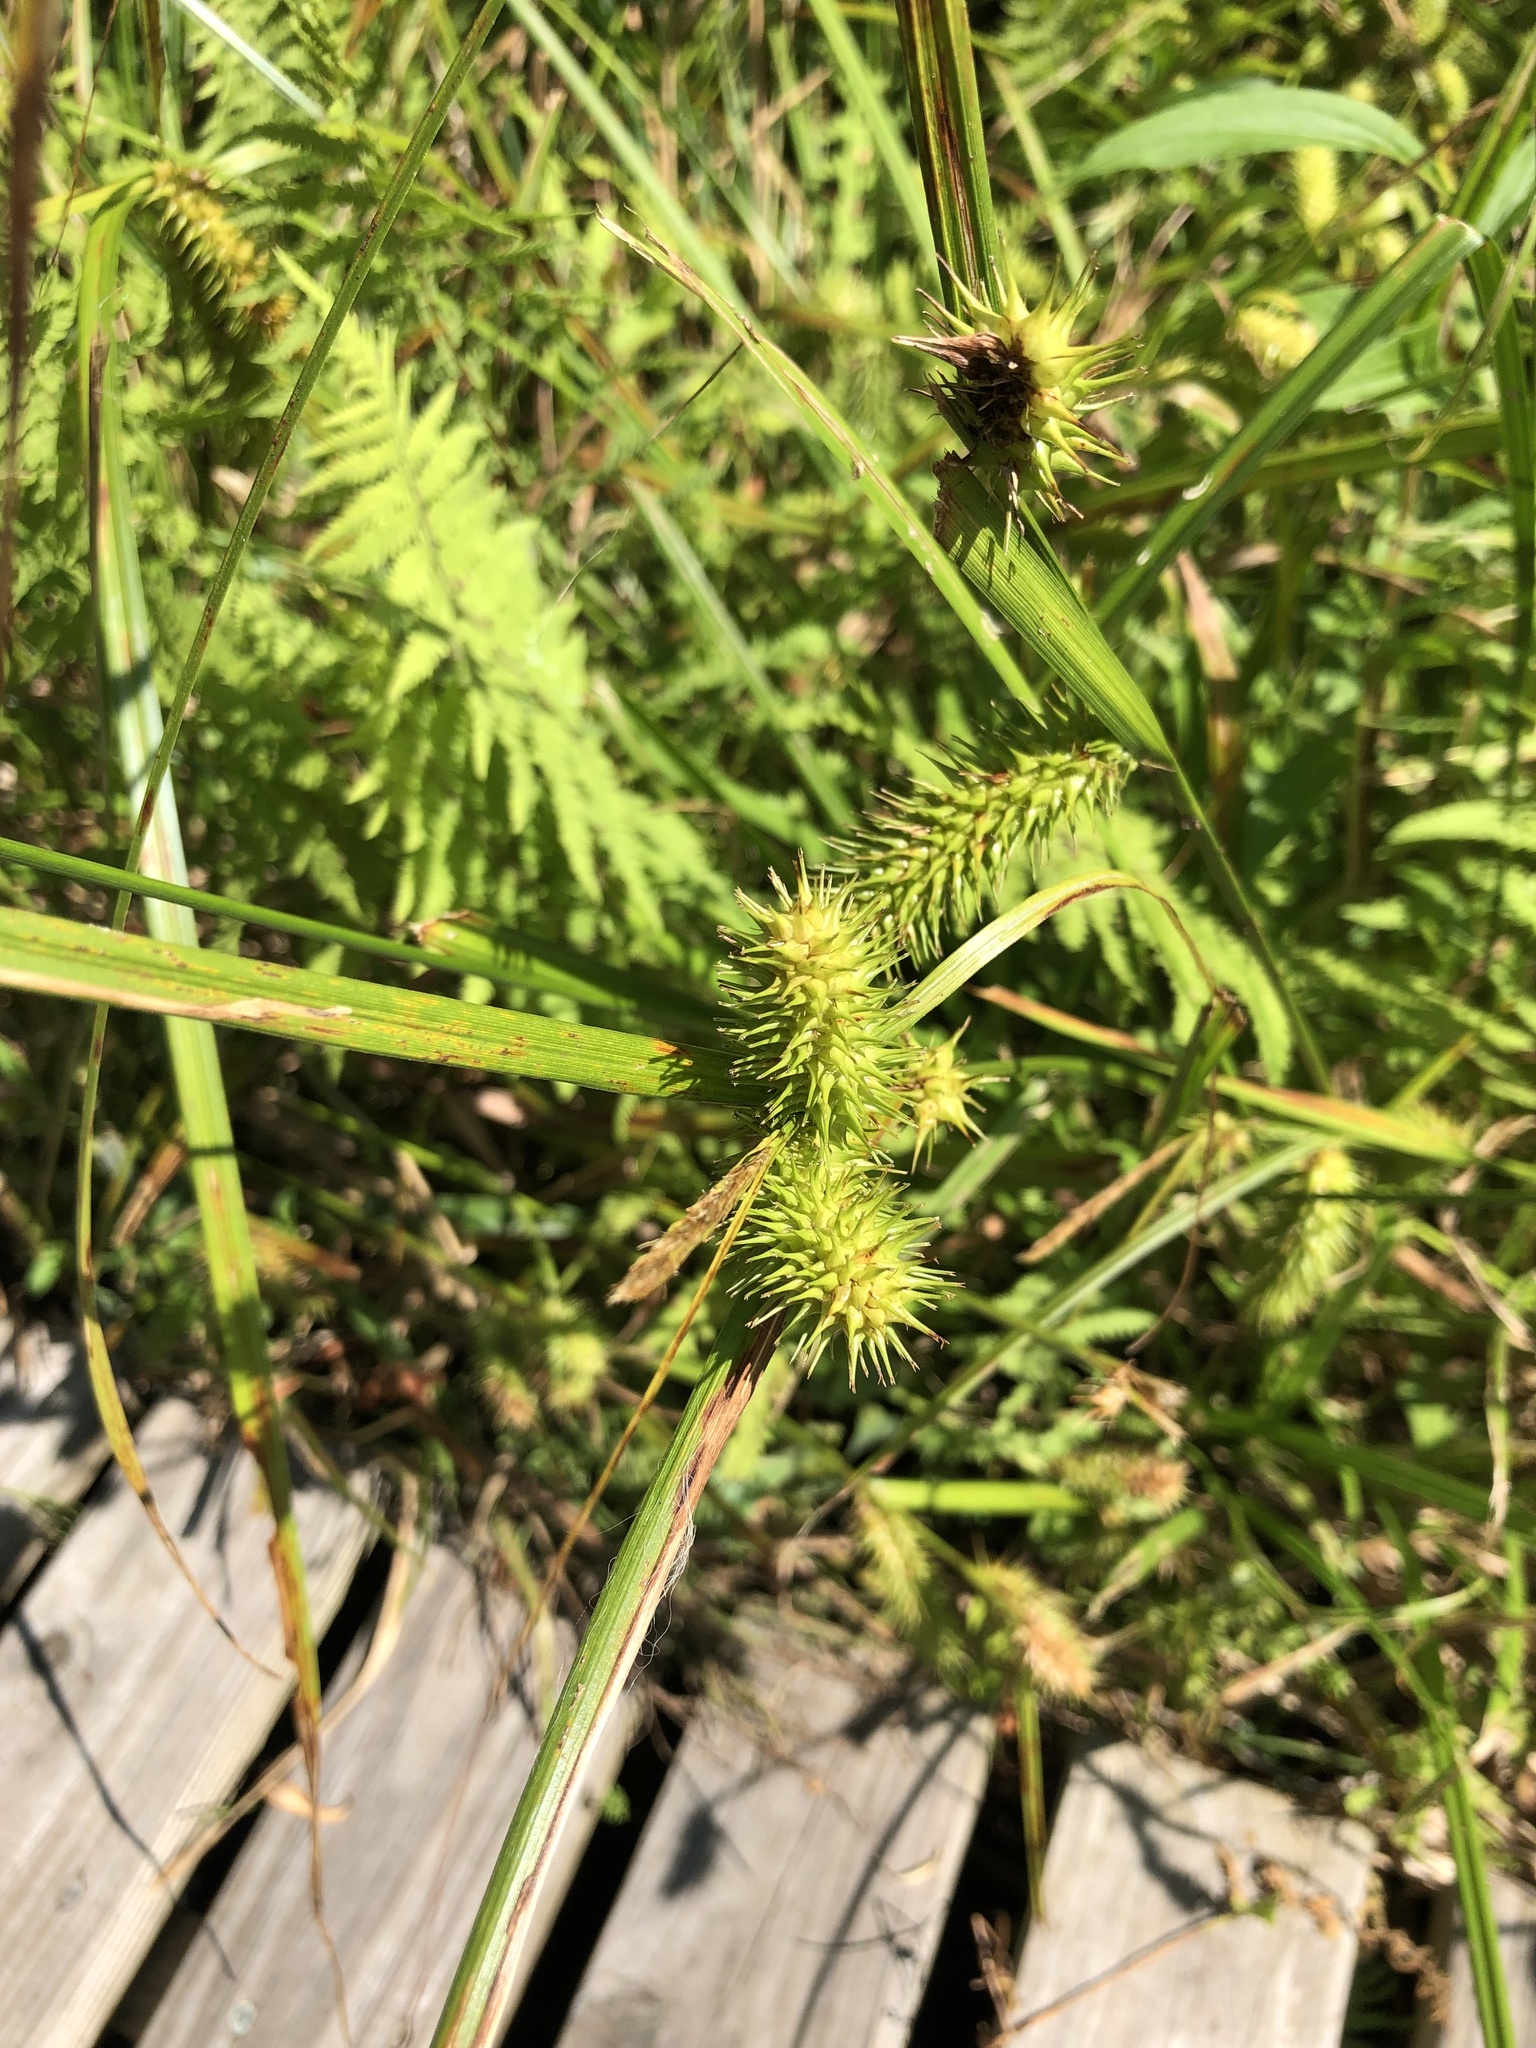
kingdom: Plantae
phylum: Tracheophyta
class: Liliopsida
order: Poales
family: Cyperaceae
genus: Carex
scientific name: Carex lurida
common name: Sallow sedge
